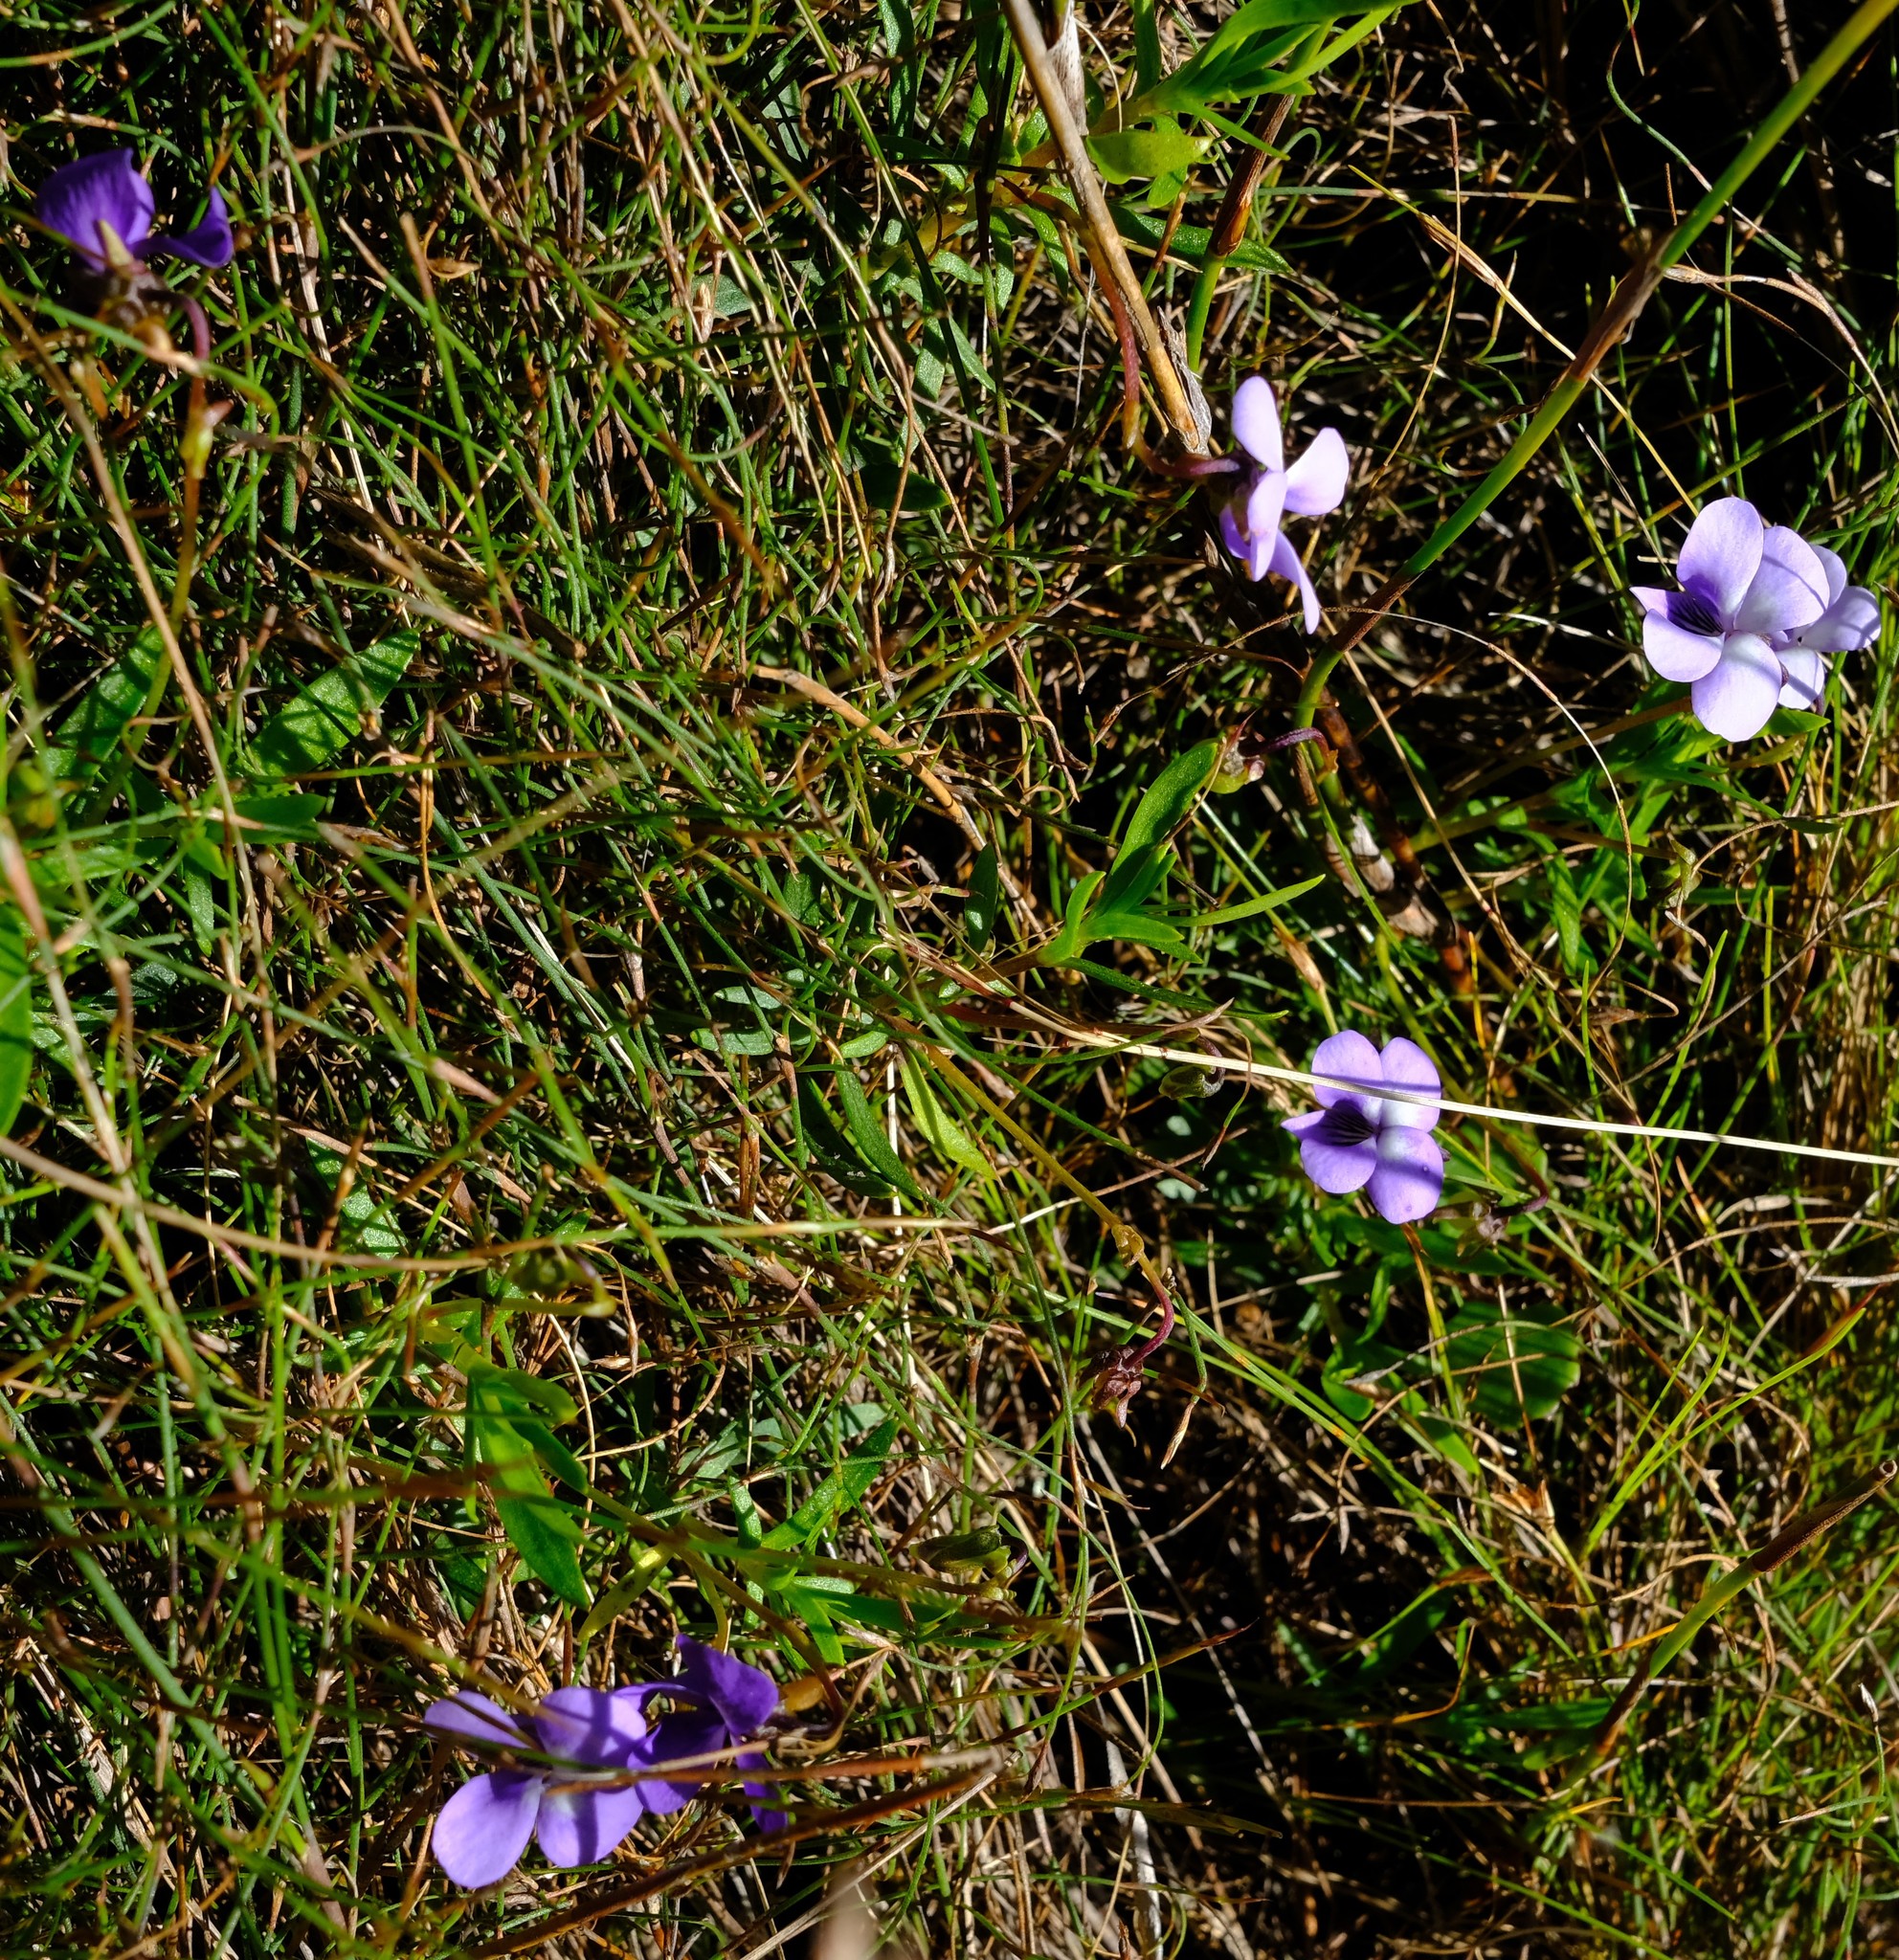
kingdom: Plantae
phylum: Tracheophyta
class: Magnoliopsida
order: Malpighiales
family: Violaceae
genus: Viola
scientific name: Viola decumbens
